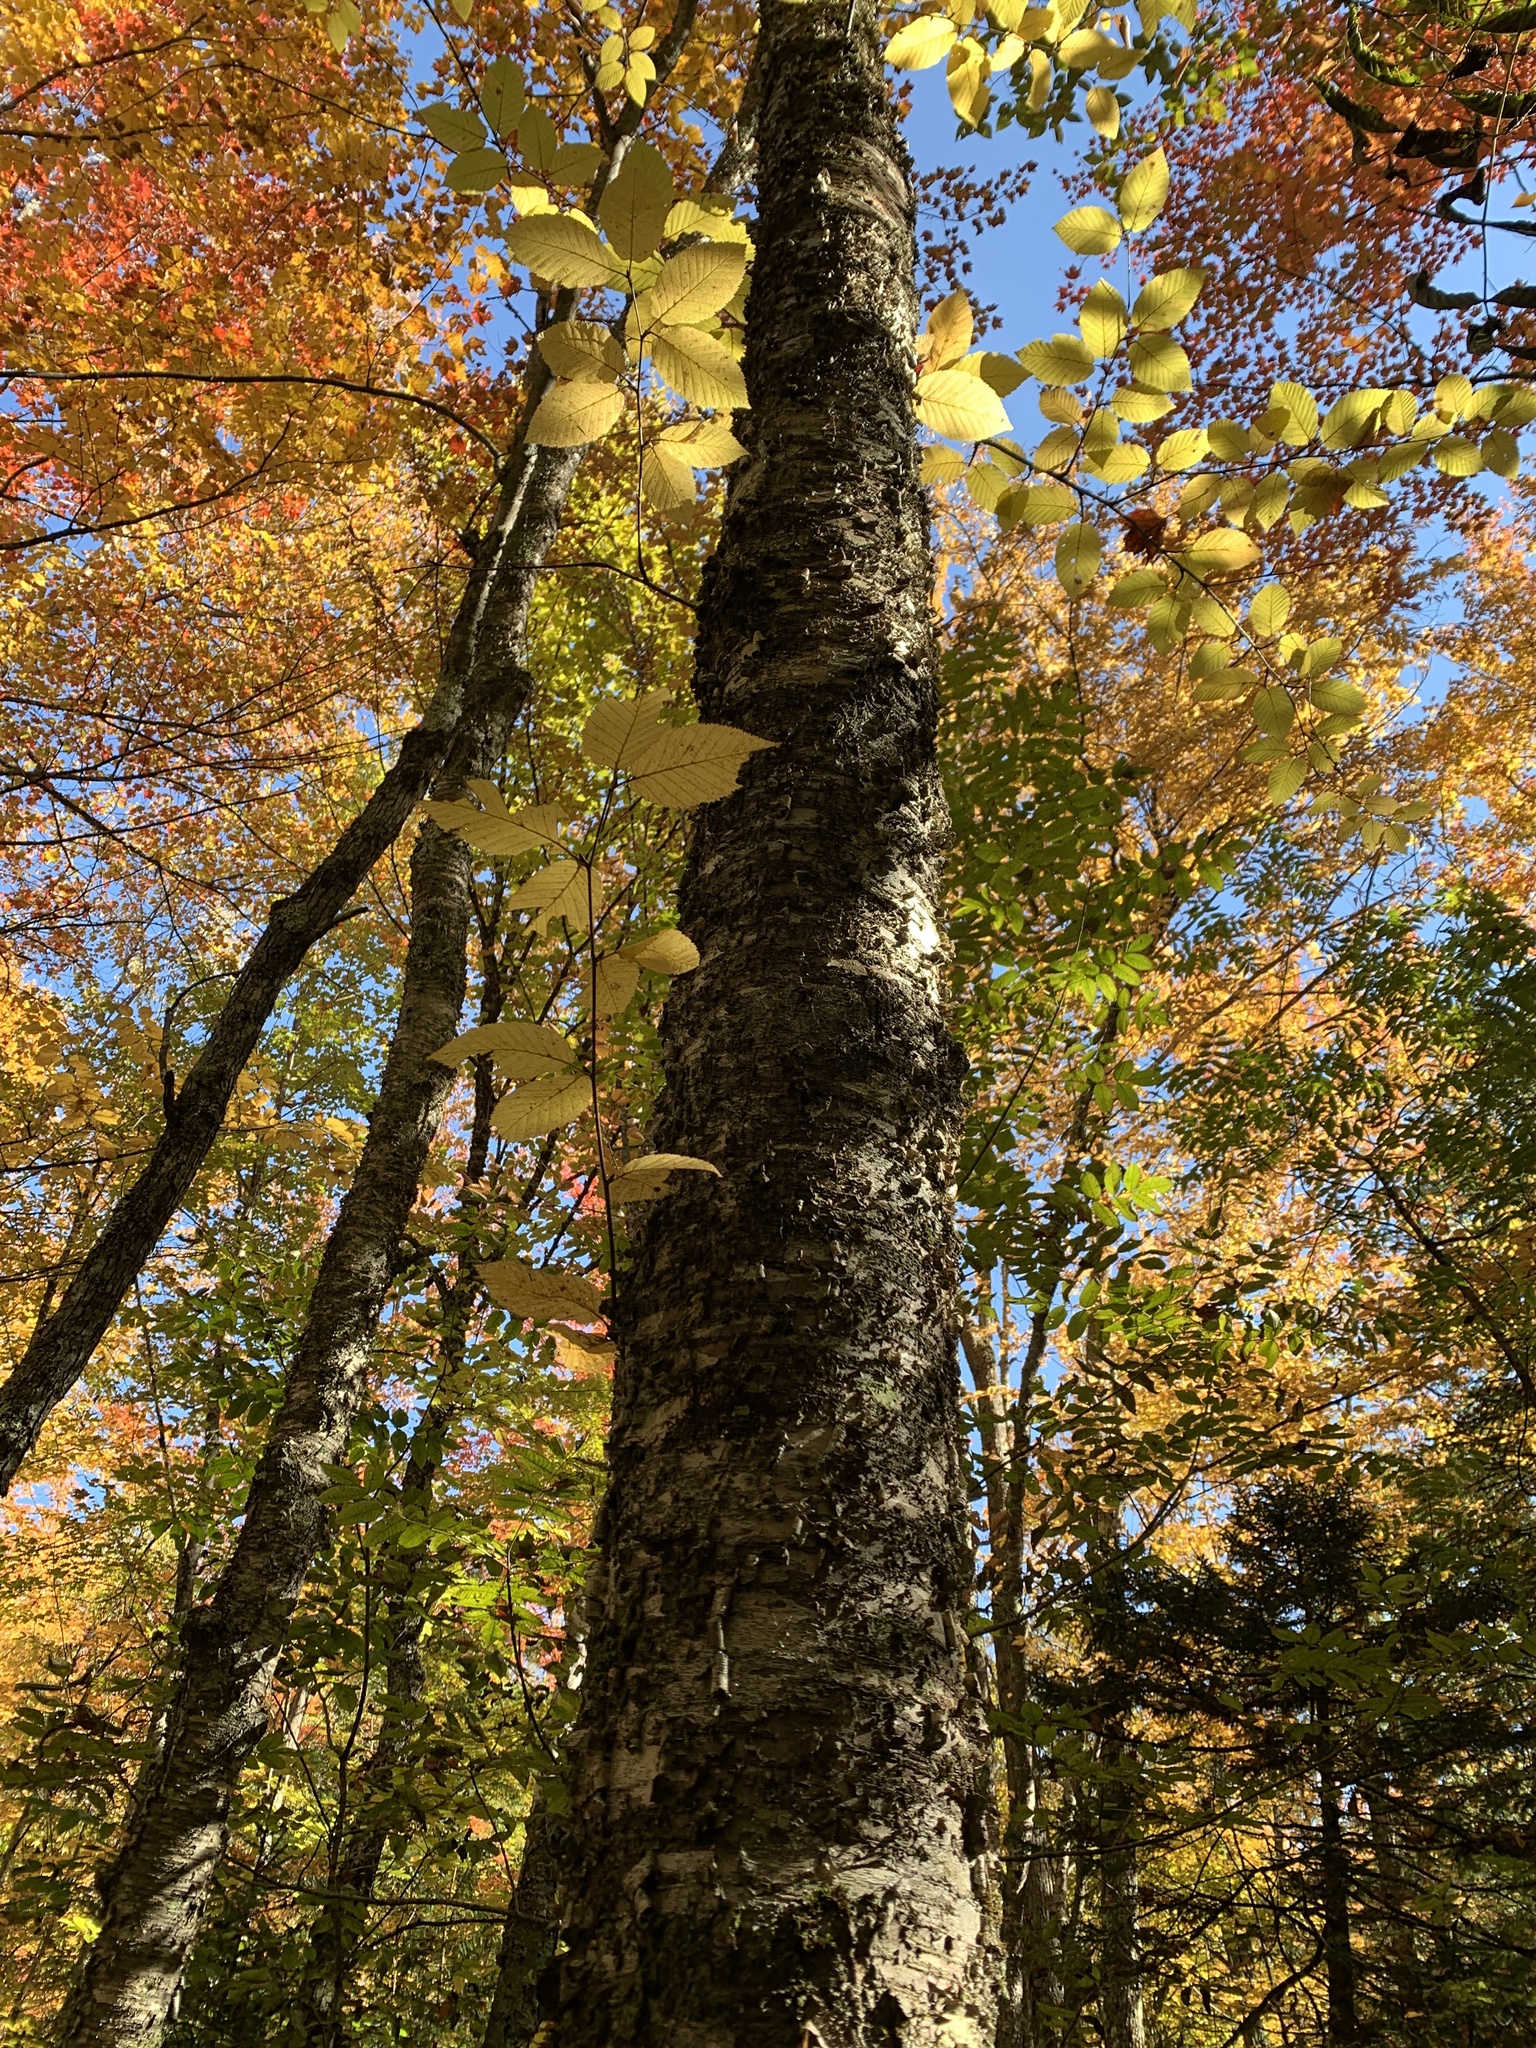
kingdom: Plantae
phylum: Tracheophyta
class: Magnoliopsida
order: Fagales
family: Betulaceae
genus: Betula
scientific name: Betula alleghaniensis
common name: Yellow birch
